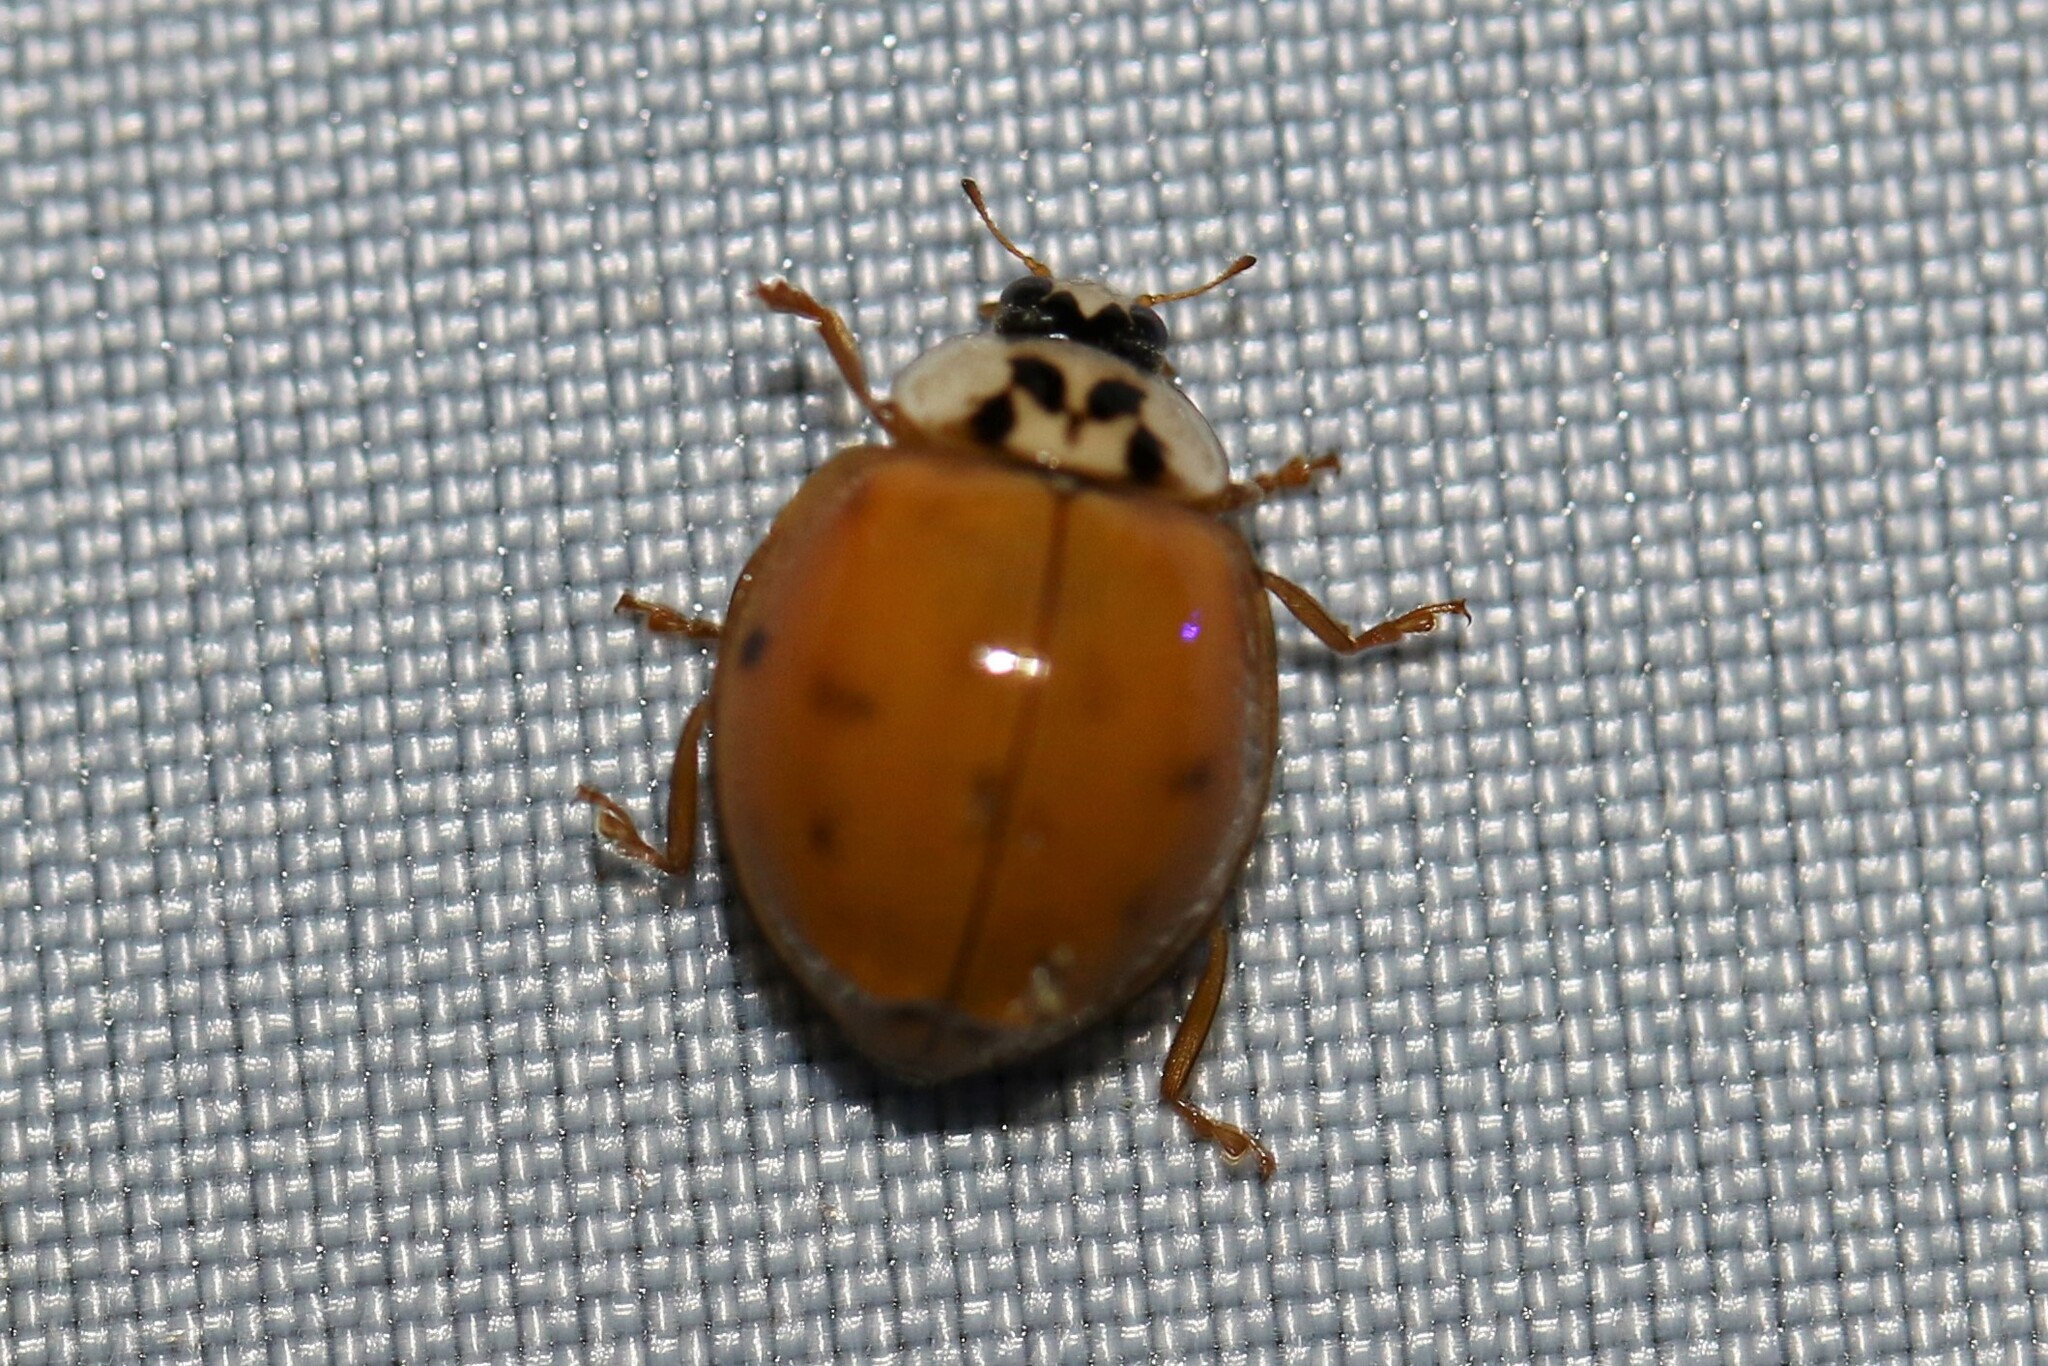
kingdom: Animalia
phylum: Arthropoda
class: Insecta
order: Coleoptera
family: Coccinellidae
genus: Harmonia
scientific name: Harmonia axyridis
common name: Harlequin ladybird
